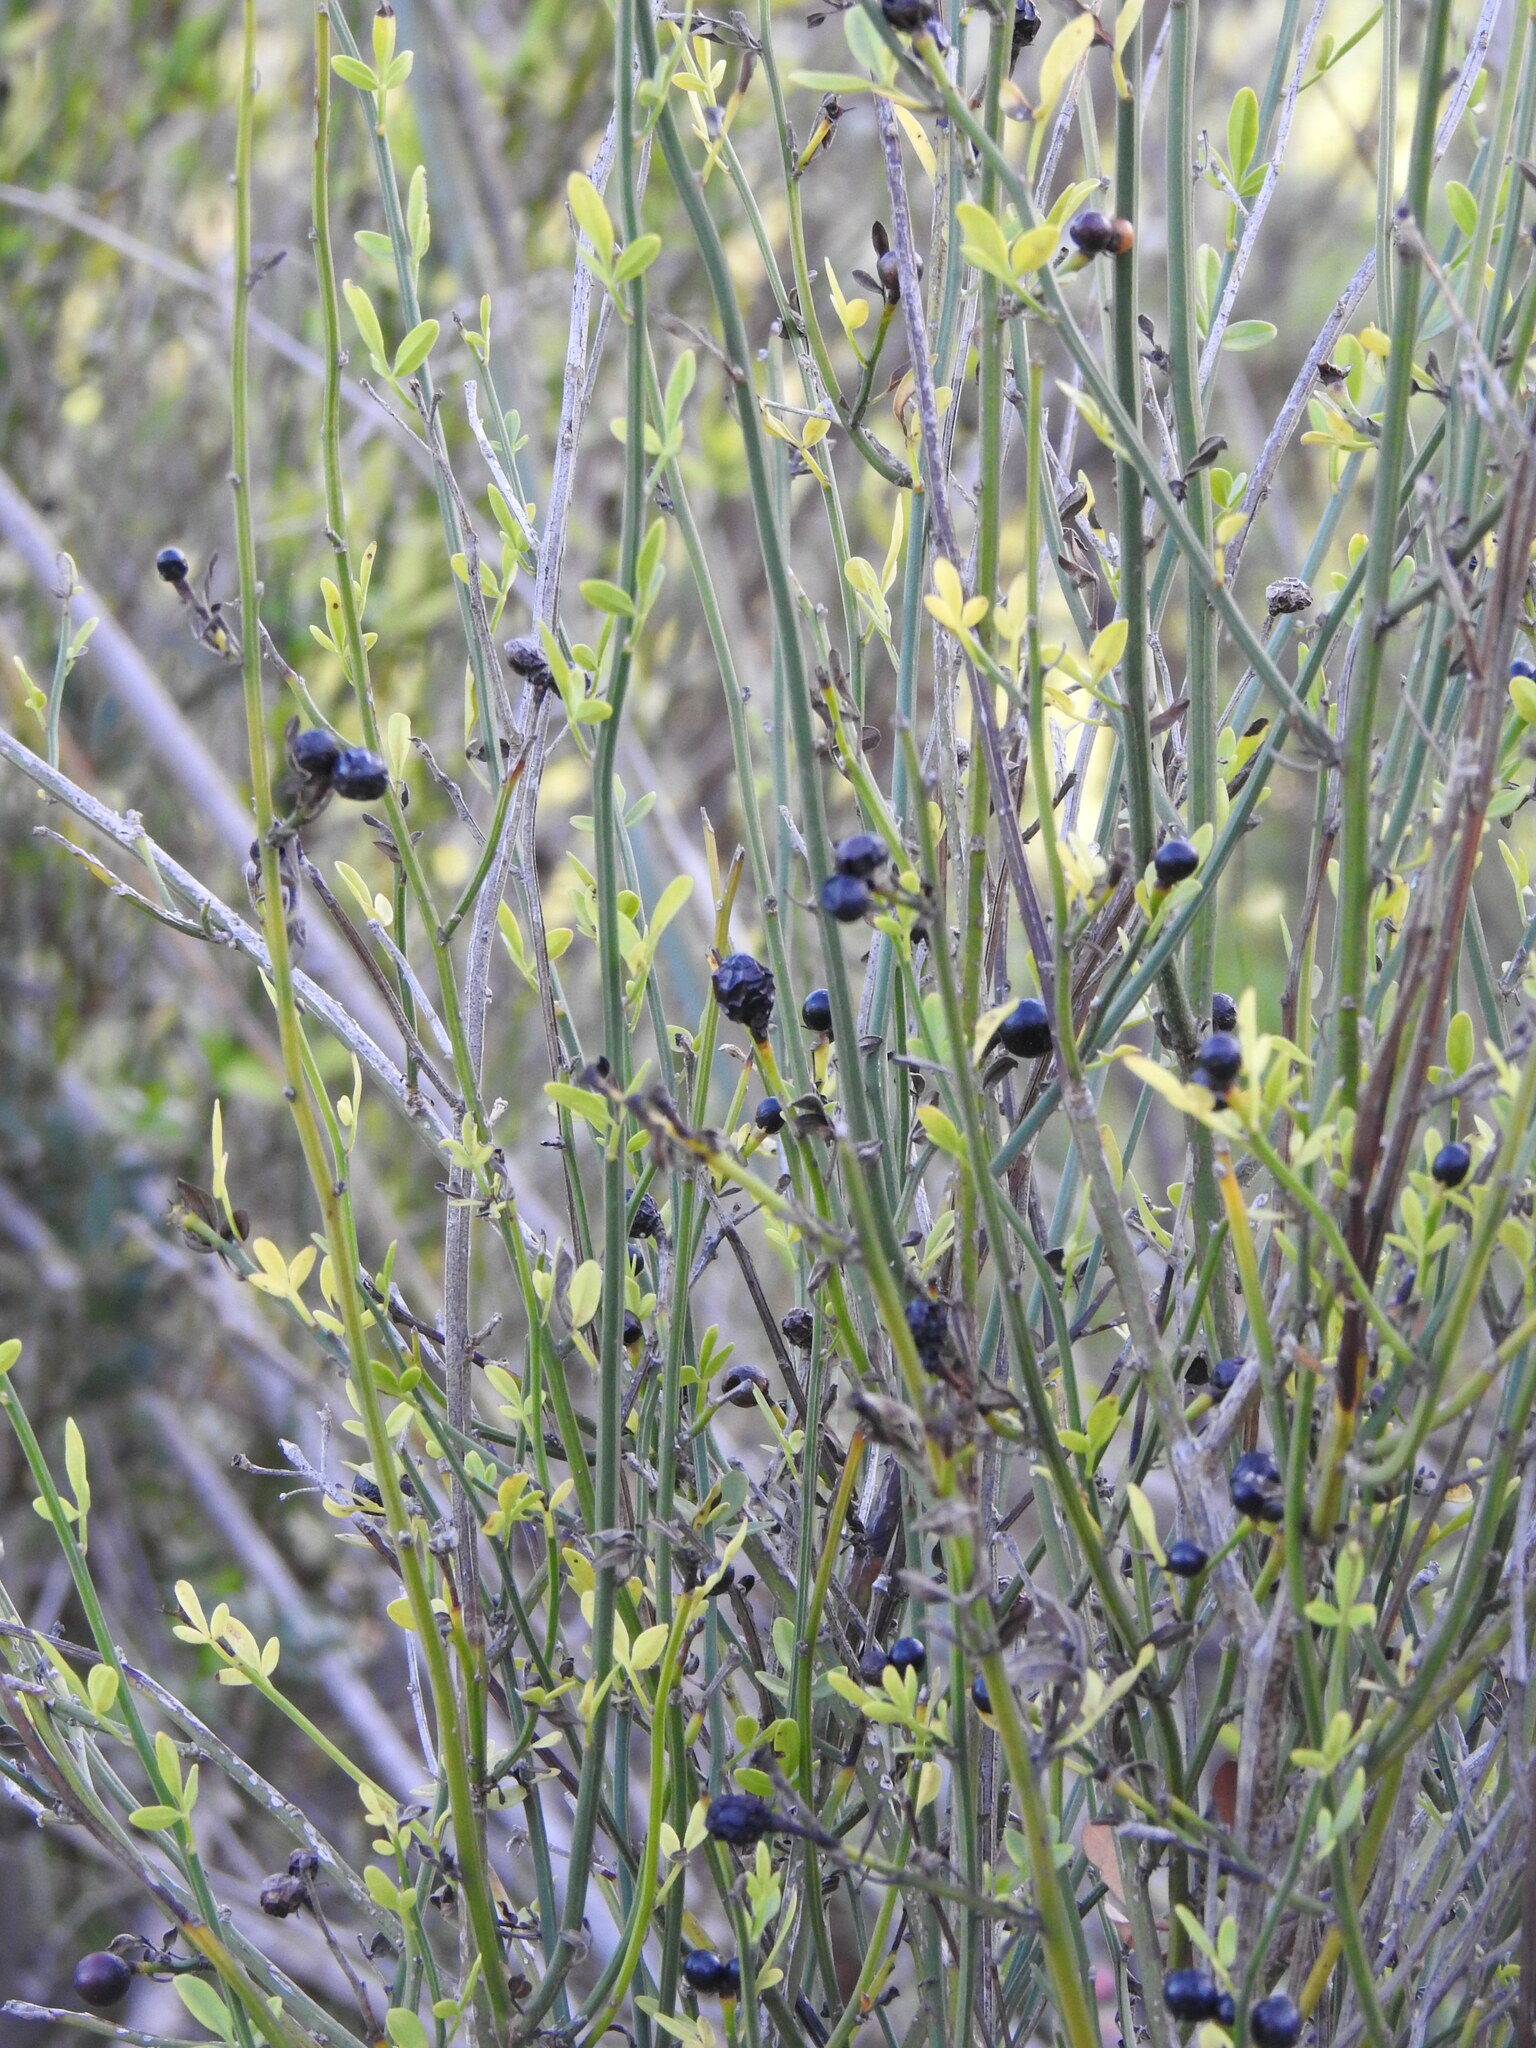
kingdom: Plantae
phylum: Tracheophyta
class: Magnoliopsida
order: Lamiales
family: Oleaceae
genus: Chrysojasminum
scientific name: Chrysojasminum fruticans
